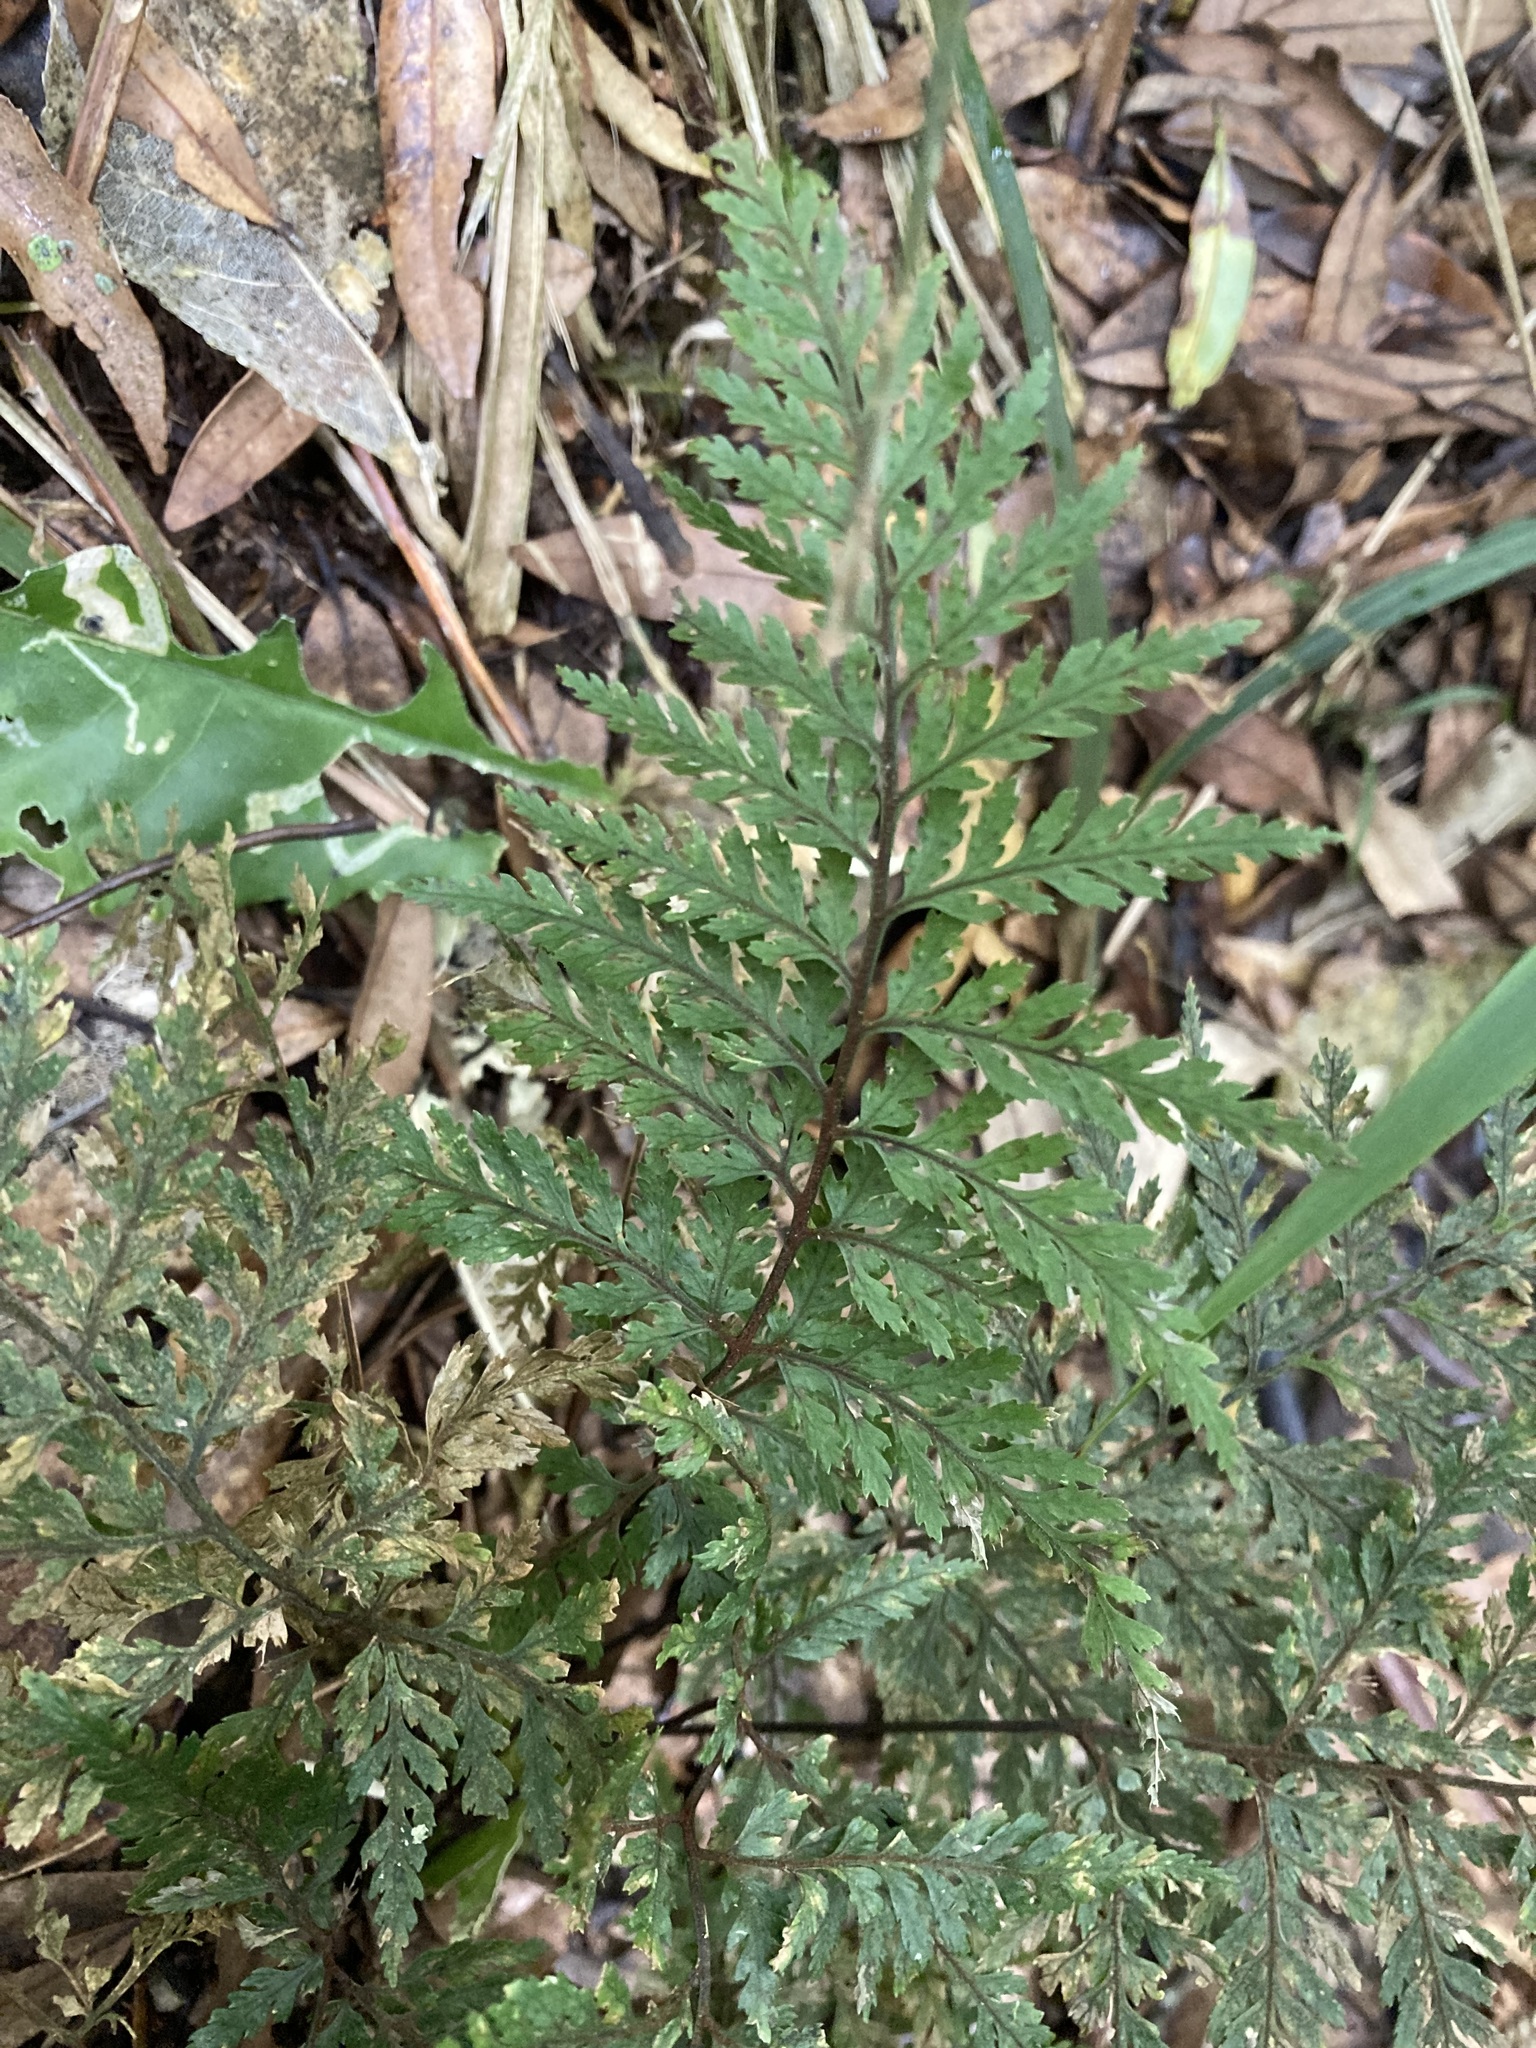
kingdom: Plantae
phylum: Tracheophyta
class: Polypodiopsida
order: Polypodiales
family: Dryopteridaceae
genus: Parapolystichum
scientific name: Parapolystichum glabellum
